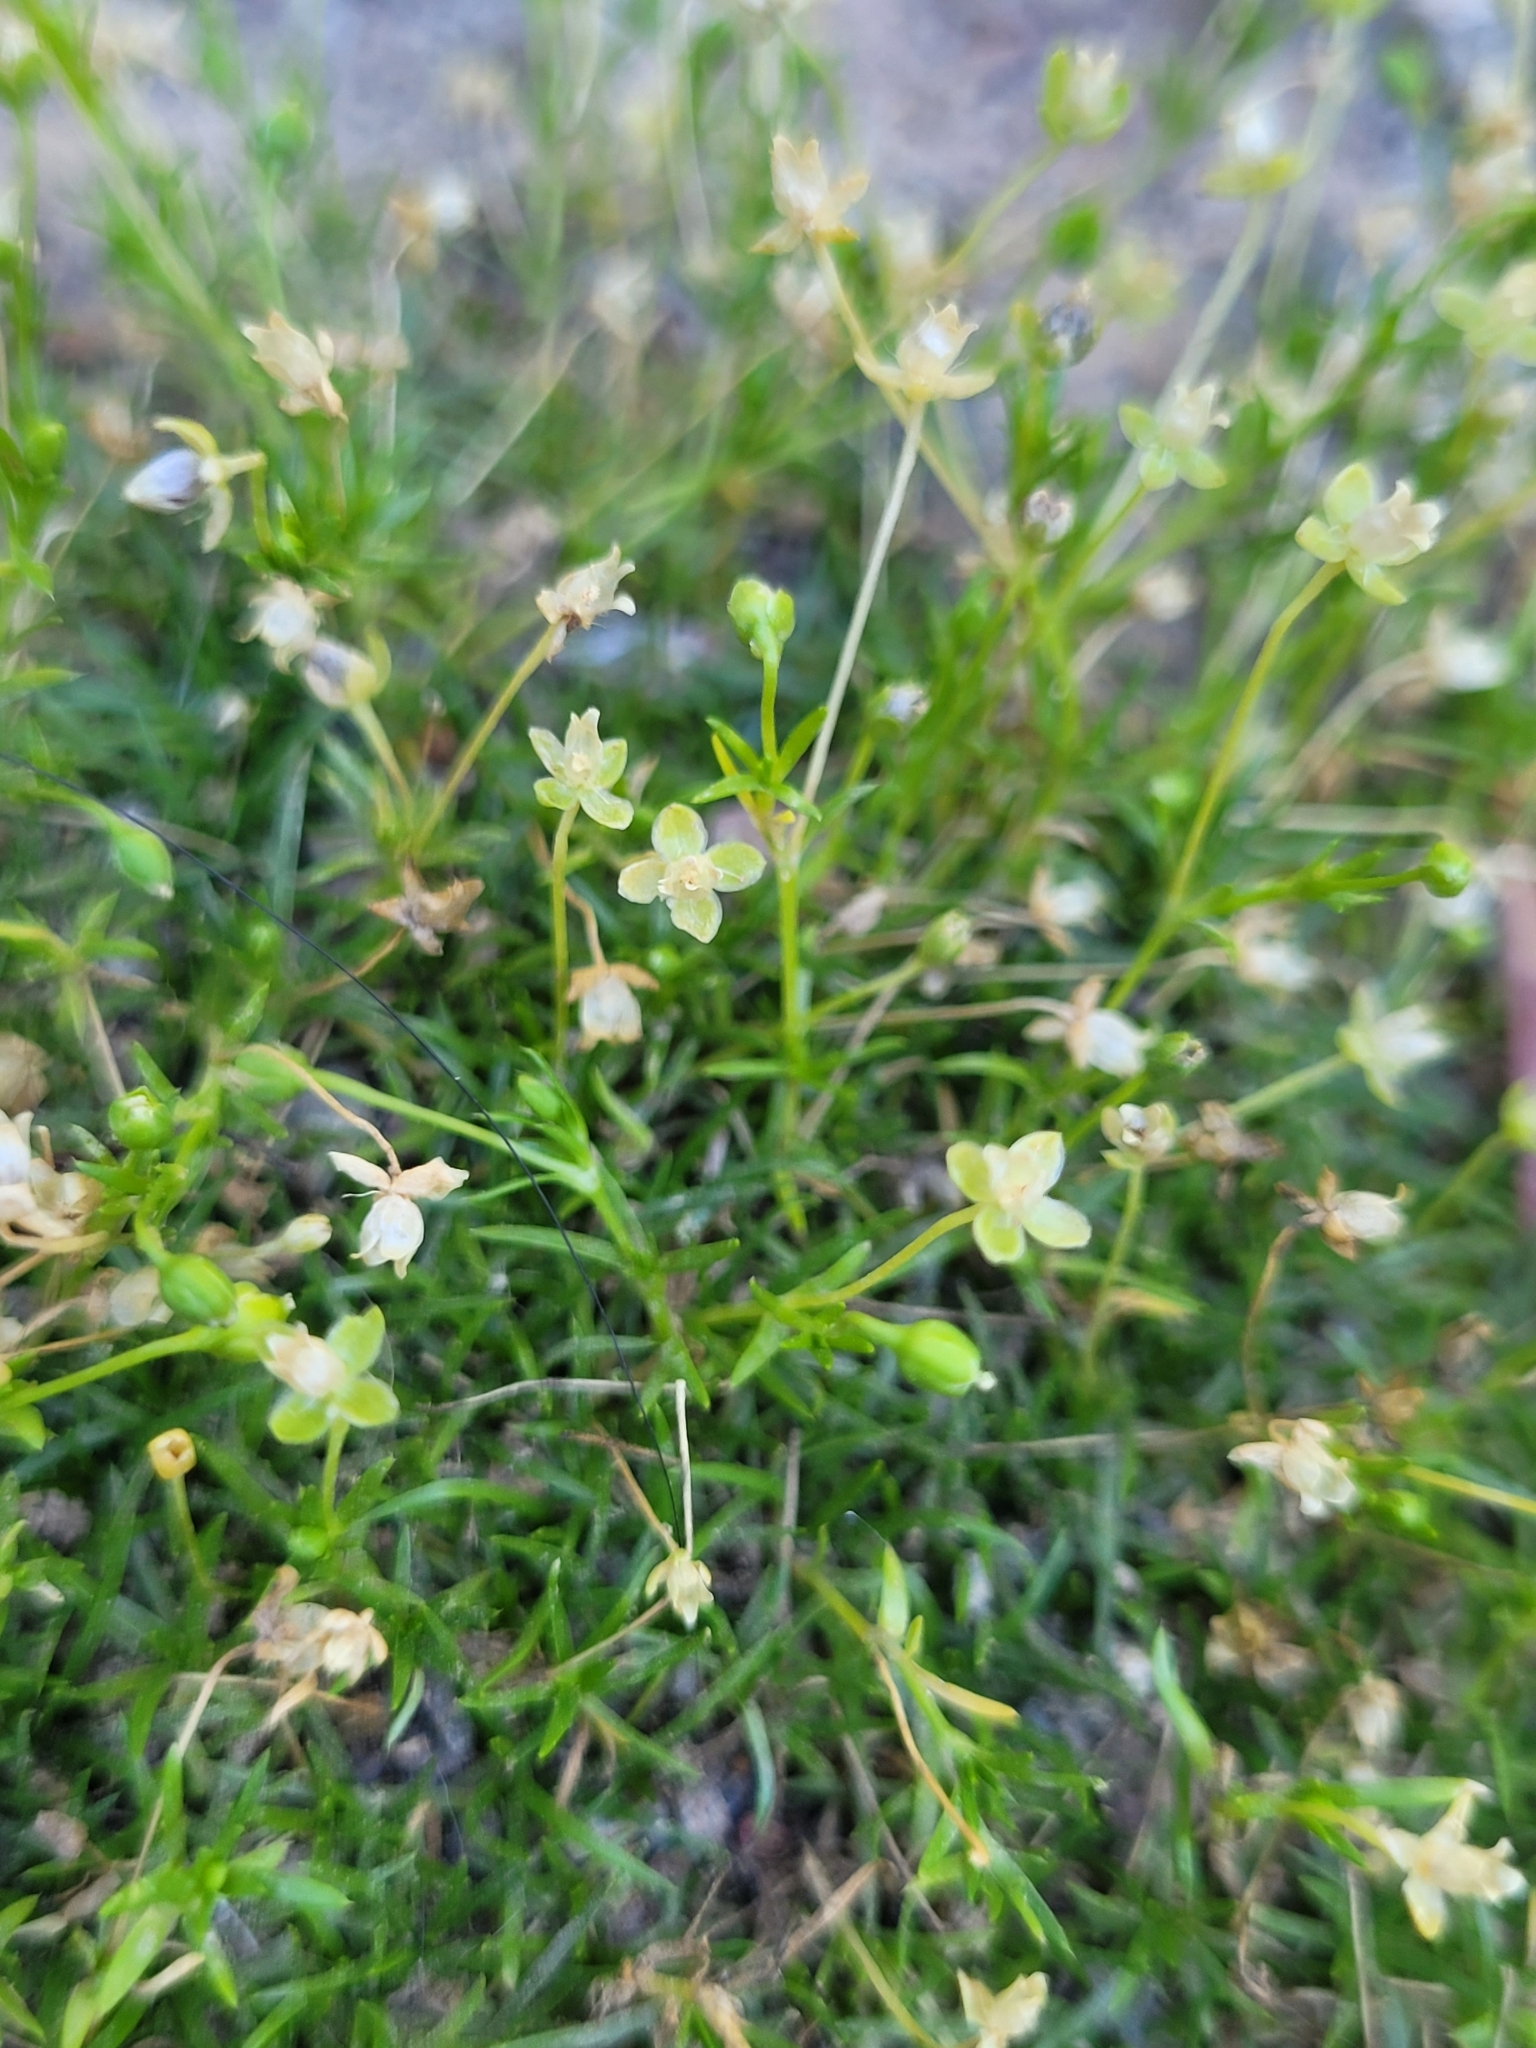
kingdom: Plantae
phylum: Tracheophyta
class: Magnoliopsida
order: Caryophyllales
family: Caryophyllaceae
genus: Sagina
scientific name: Sagina procumbens
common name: Procumbent pearlwort
